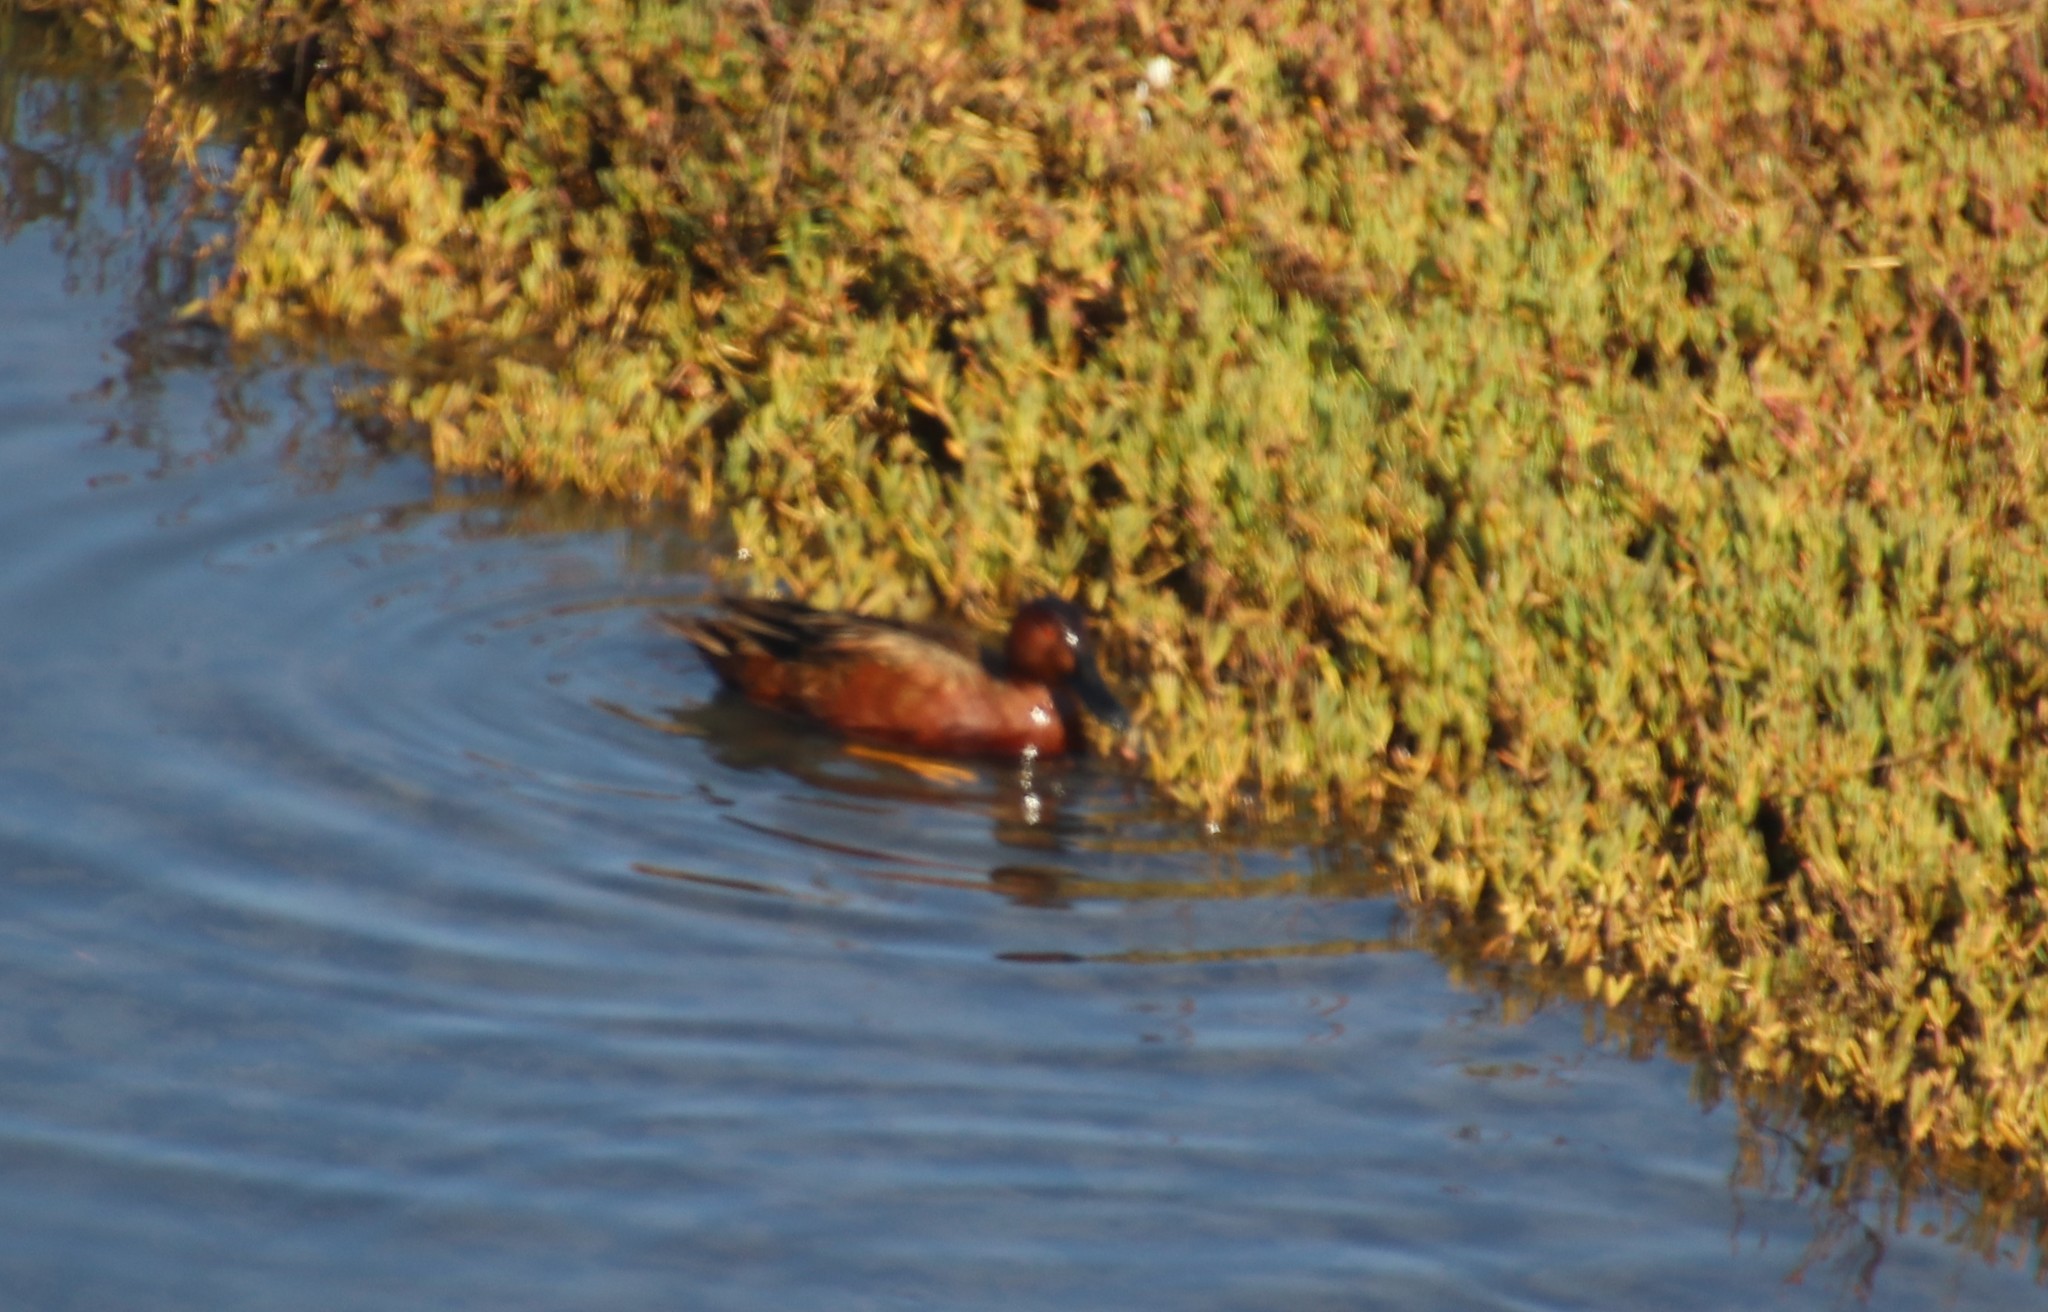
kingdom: Animalia
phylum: Chordata
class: Aves
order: Anseriformes
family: Anatidae
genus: Spatula
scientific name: Spatula cyanoptera
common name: Cinnamon teal
